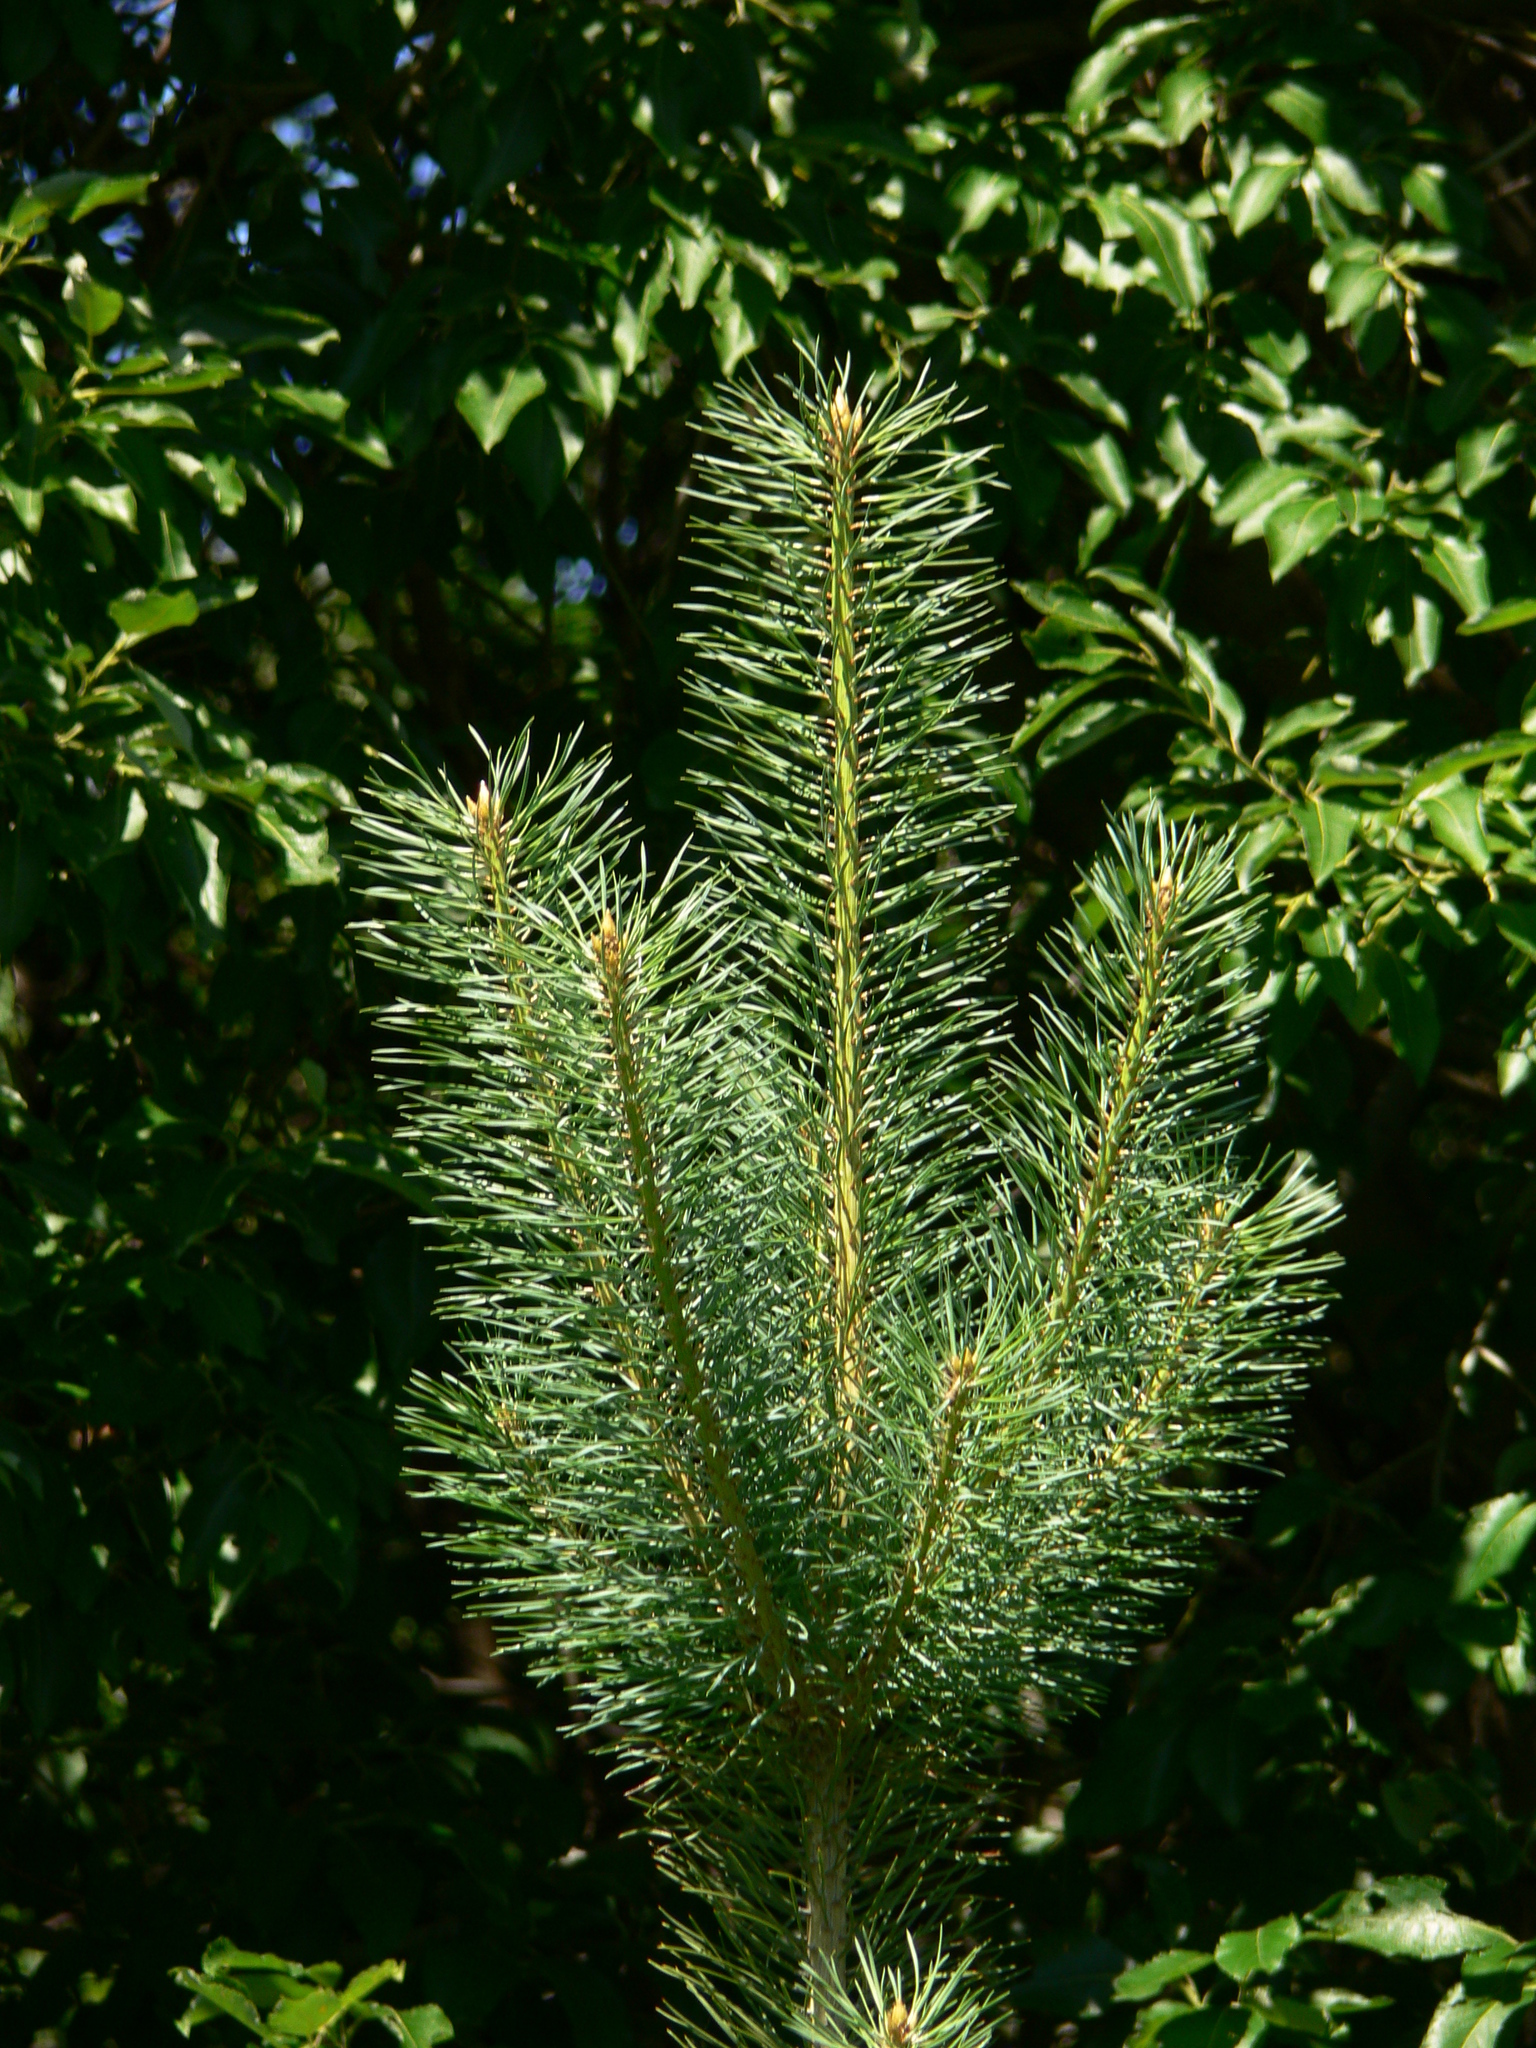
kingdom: Plantae
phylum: Tracheophyta
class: Pinopsida
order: Pinales
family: Pinaceae
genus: Pinus
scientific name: Pinus sylvestris
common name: Scots pine
